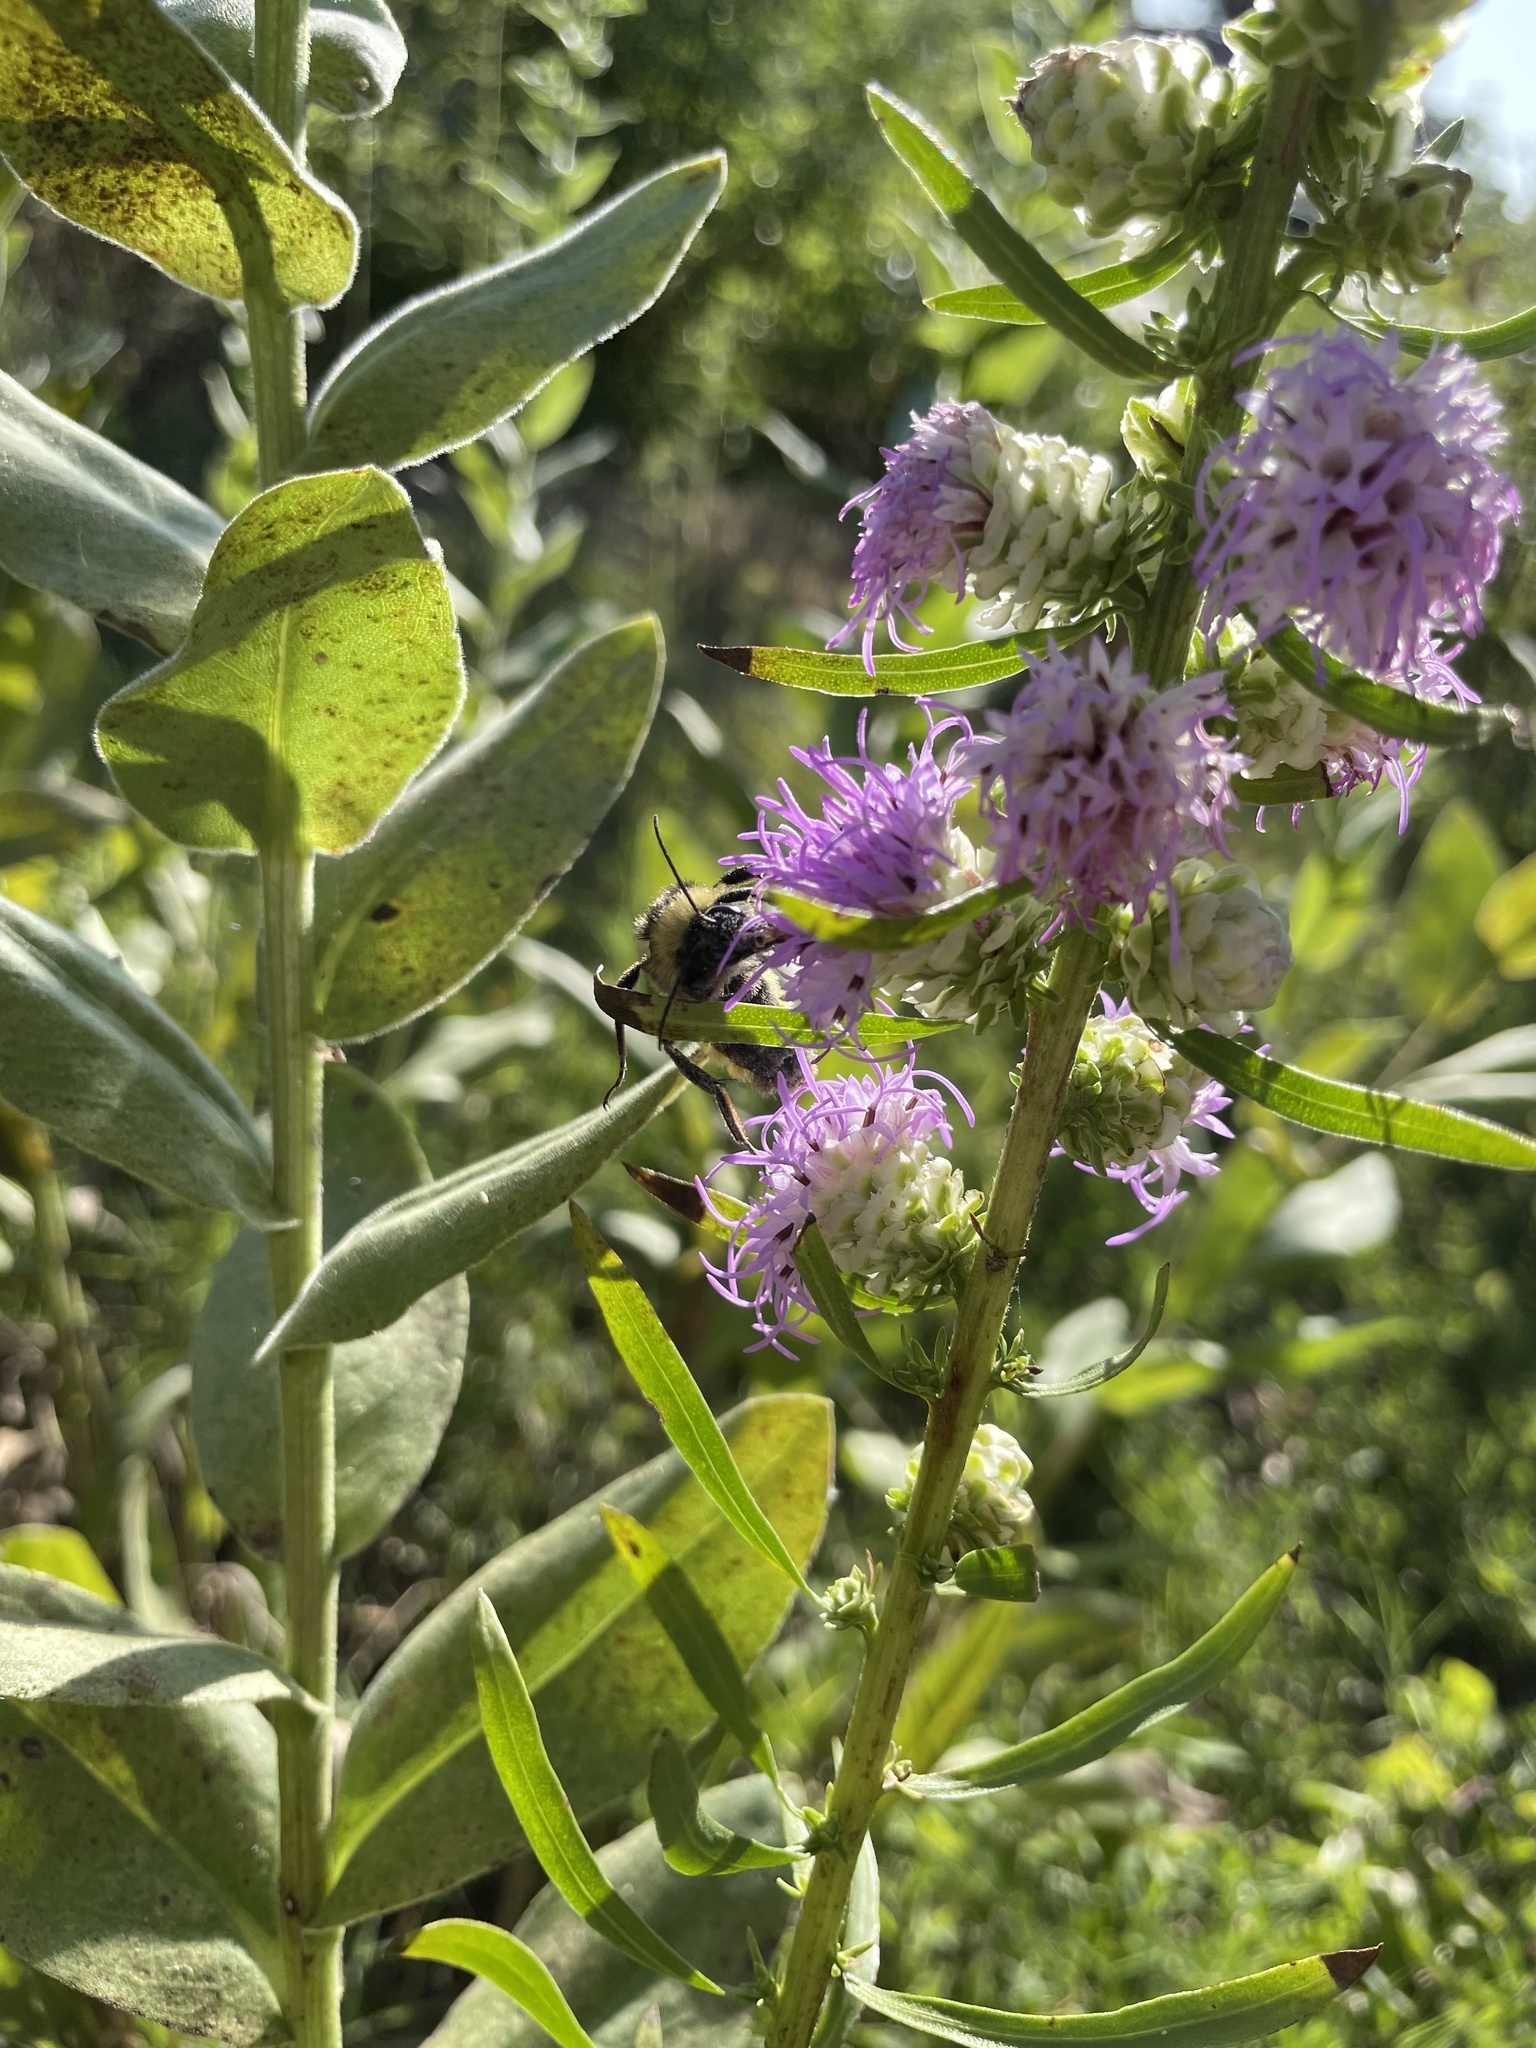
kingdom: Animalia
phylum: Arthropoda
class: Insecta
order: Hymenoptera
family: Apidae
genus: Bombus
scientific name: Bombus pensylvanicus
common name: Bumble bee
